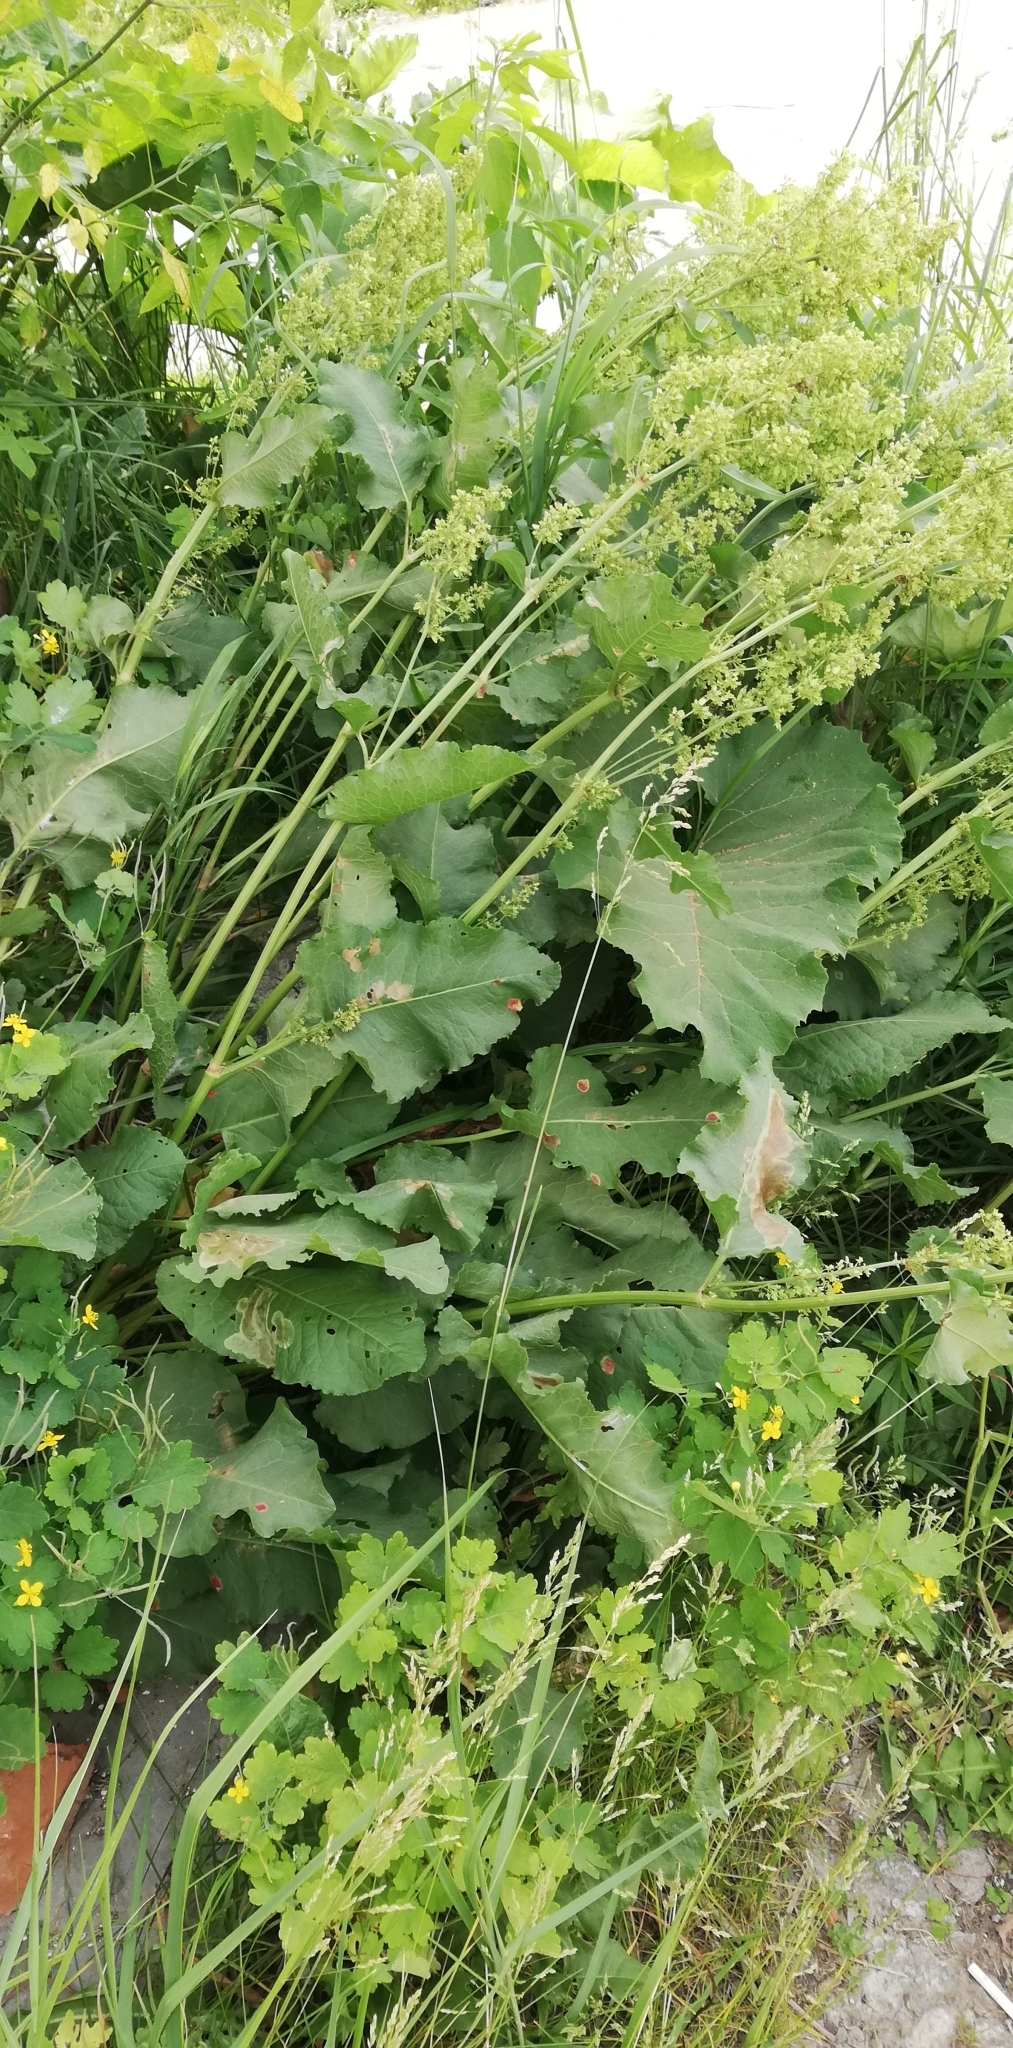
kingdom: Plantae
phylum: Tracheophyta
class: Magnoliopsida
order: Caryophyllales
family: Polygonaceae
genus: Rumex
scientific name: Rumex confertus
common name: Russian dock
